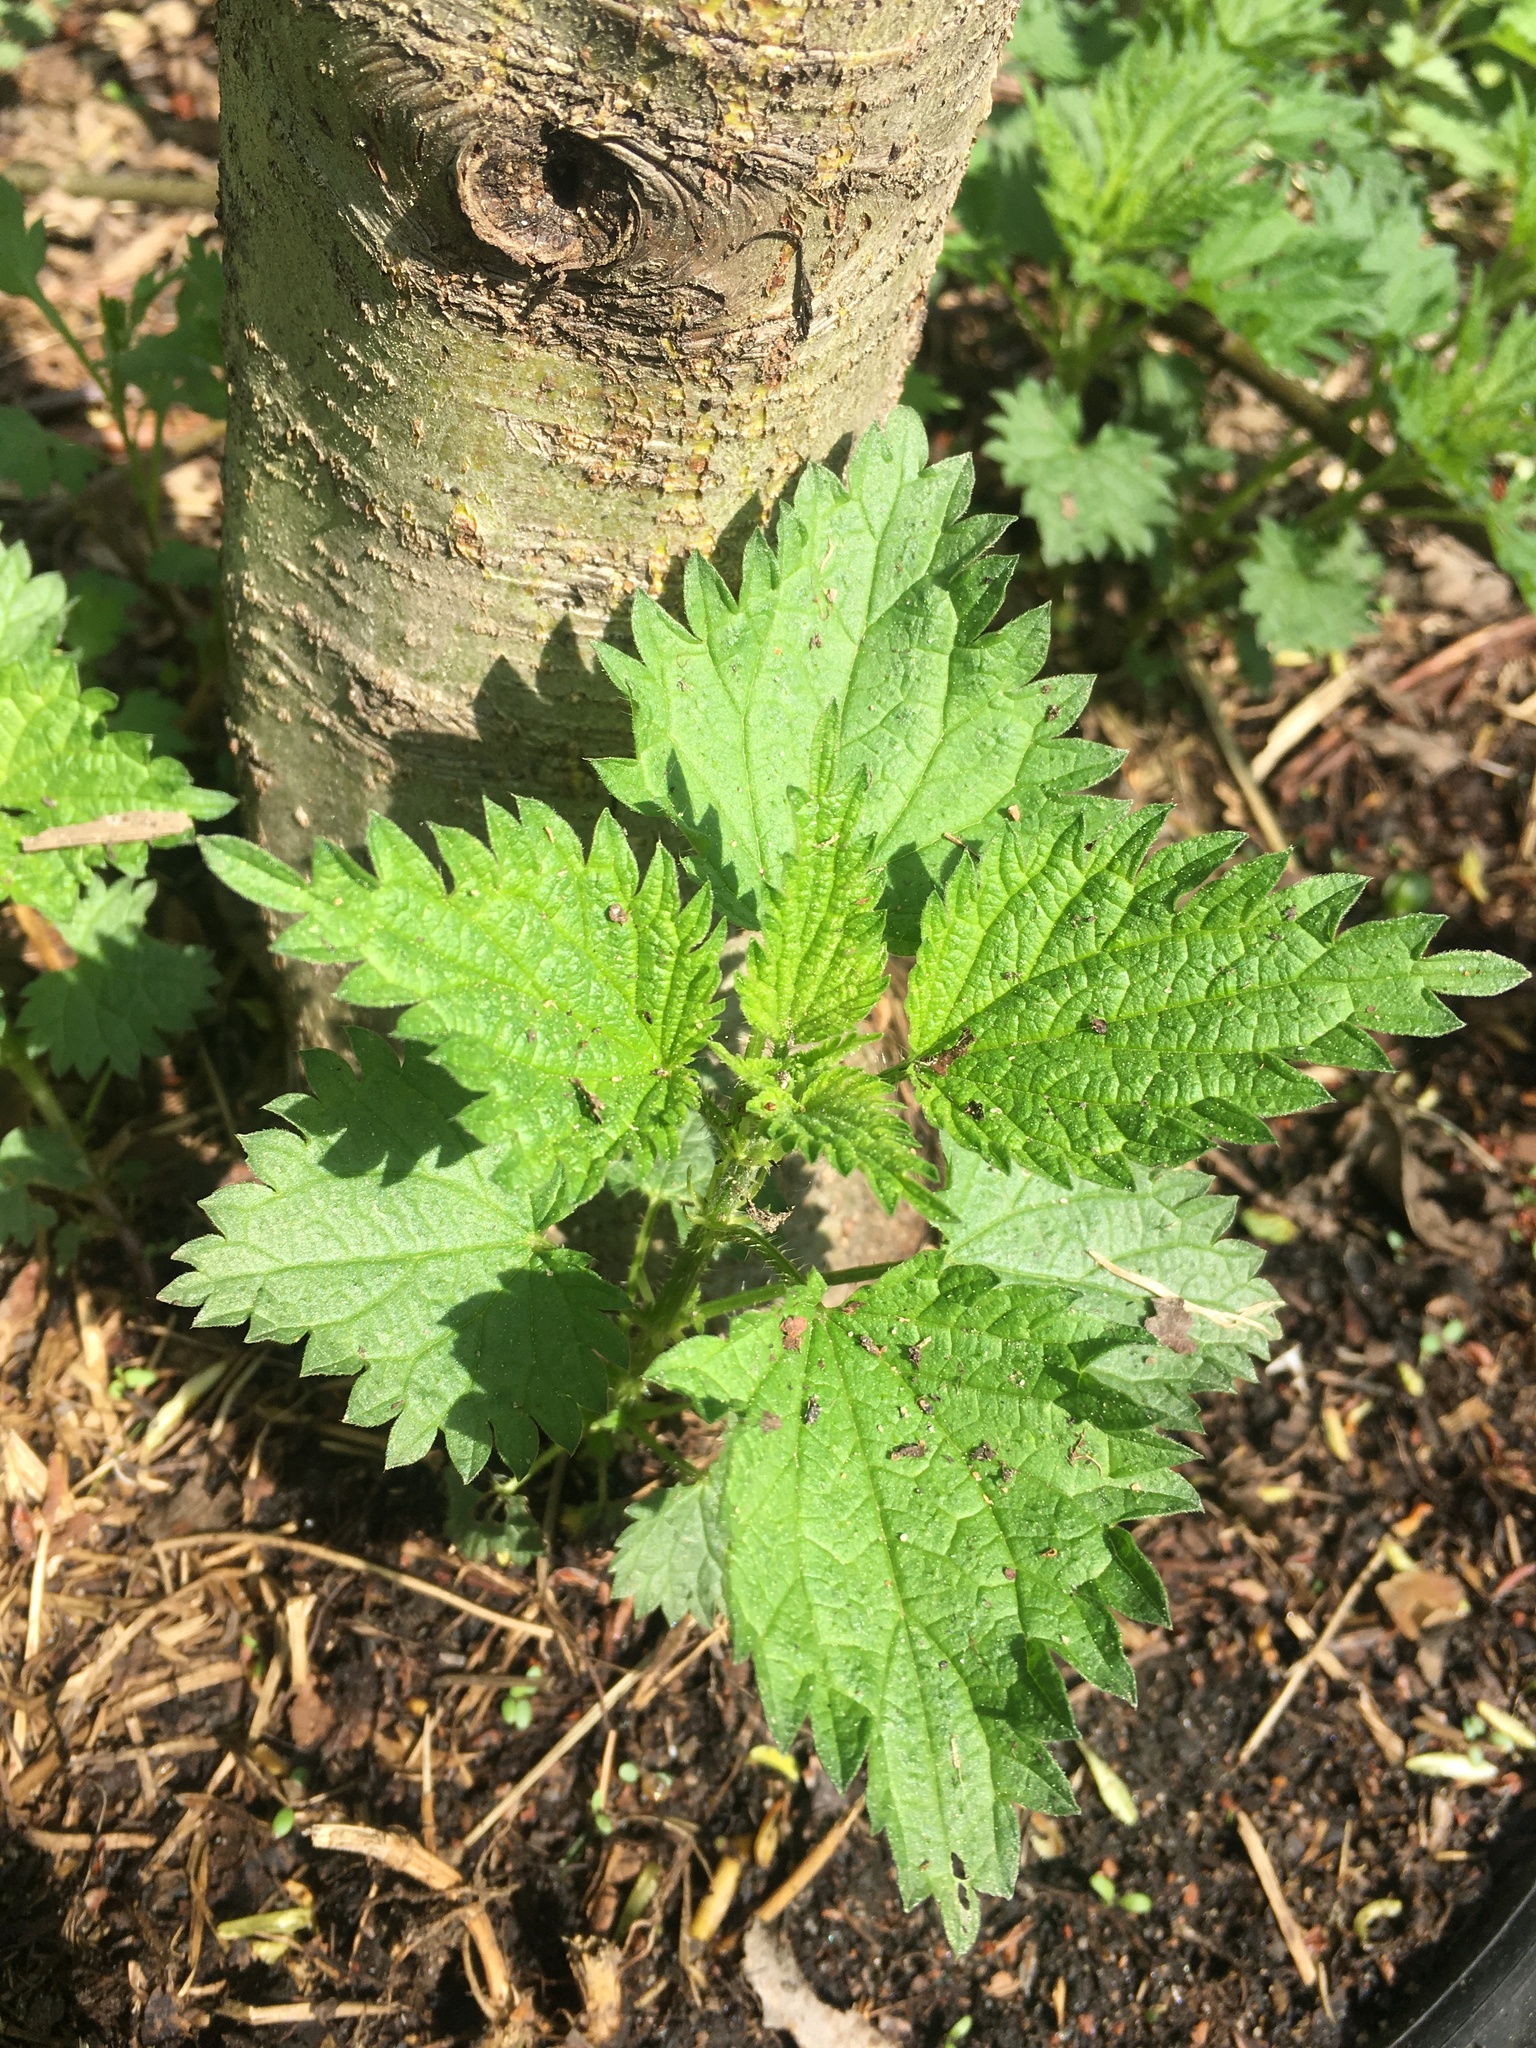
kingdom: Plantae
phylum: Tracheophyta
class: Magnoliopsida
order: Rosales
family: Urticaceae
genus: Urtica
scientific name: Urtica dioica
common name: Common nettle
